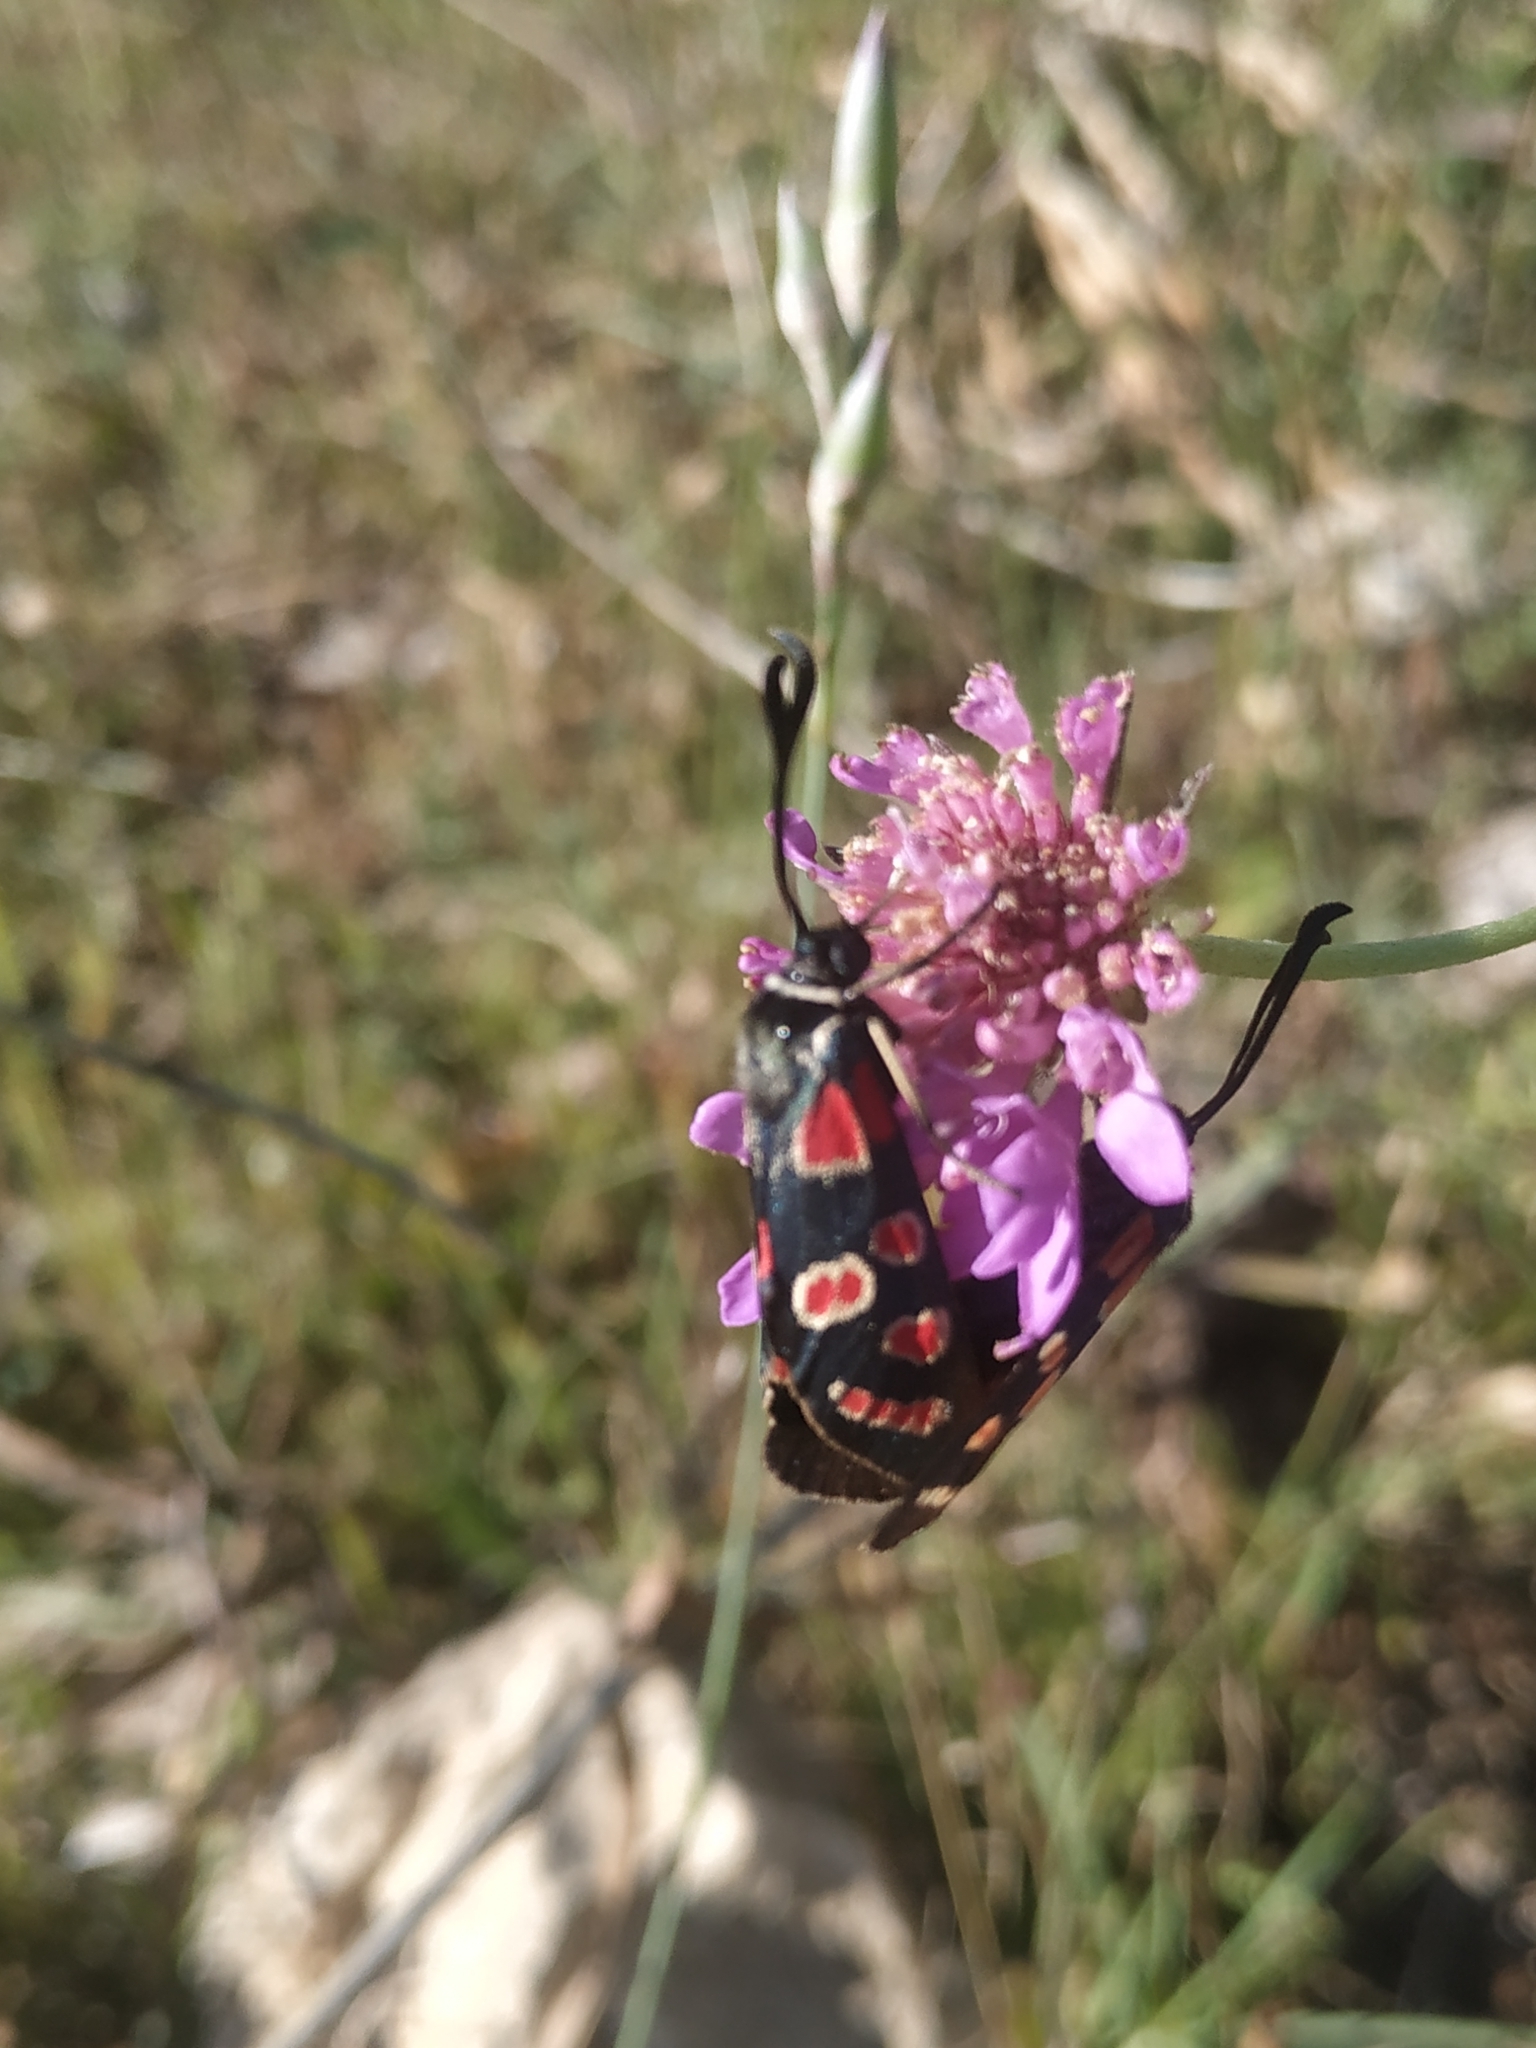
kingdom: Animalia
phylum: Arthropoda
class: Insecta
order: Lepidoptera
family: Zygaenidae
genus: Zygaena
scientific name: Zygaena carniolica
